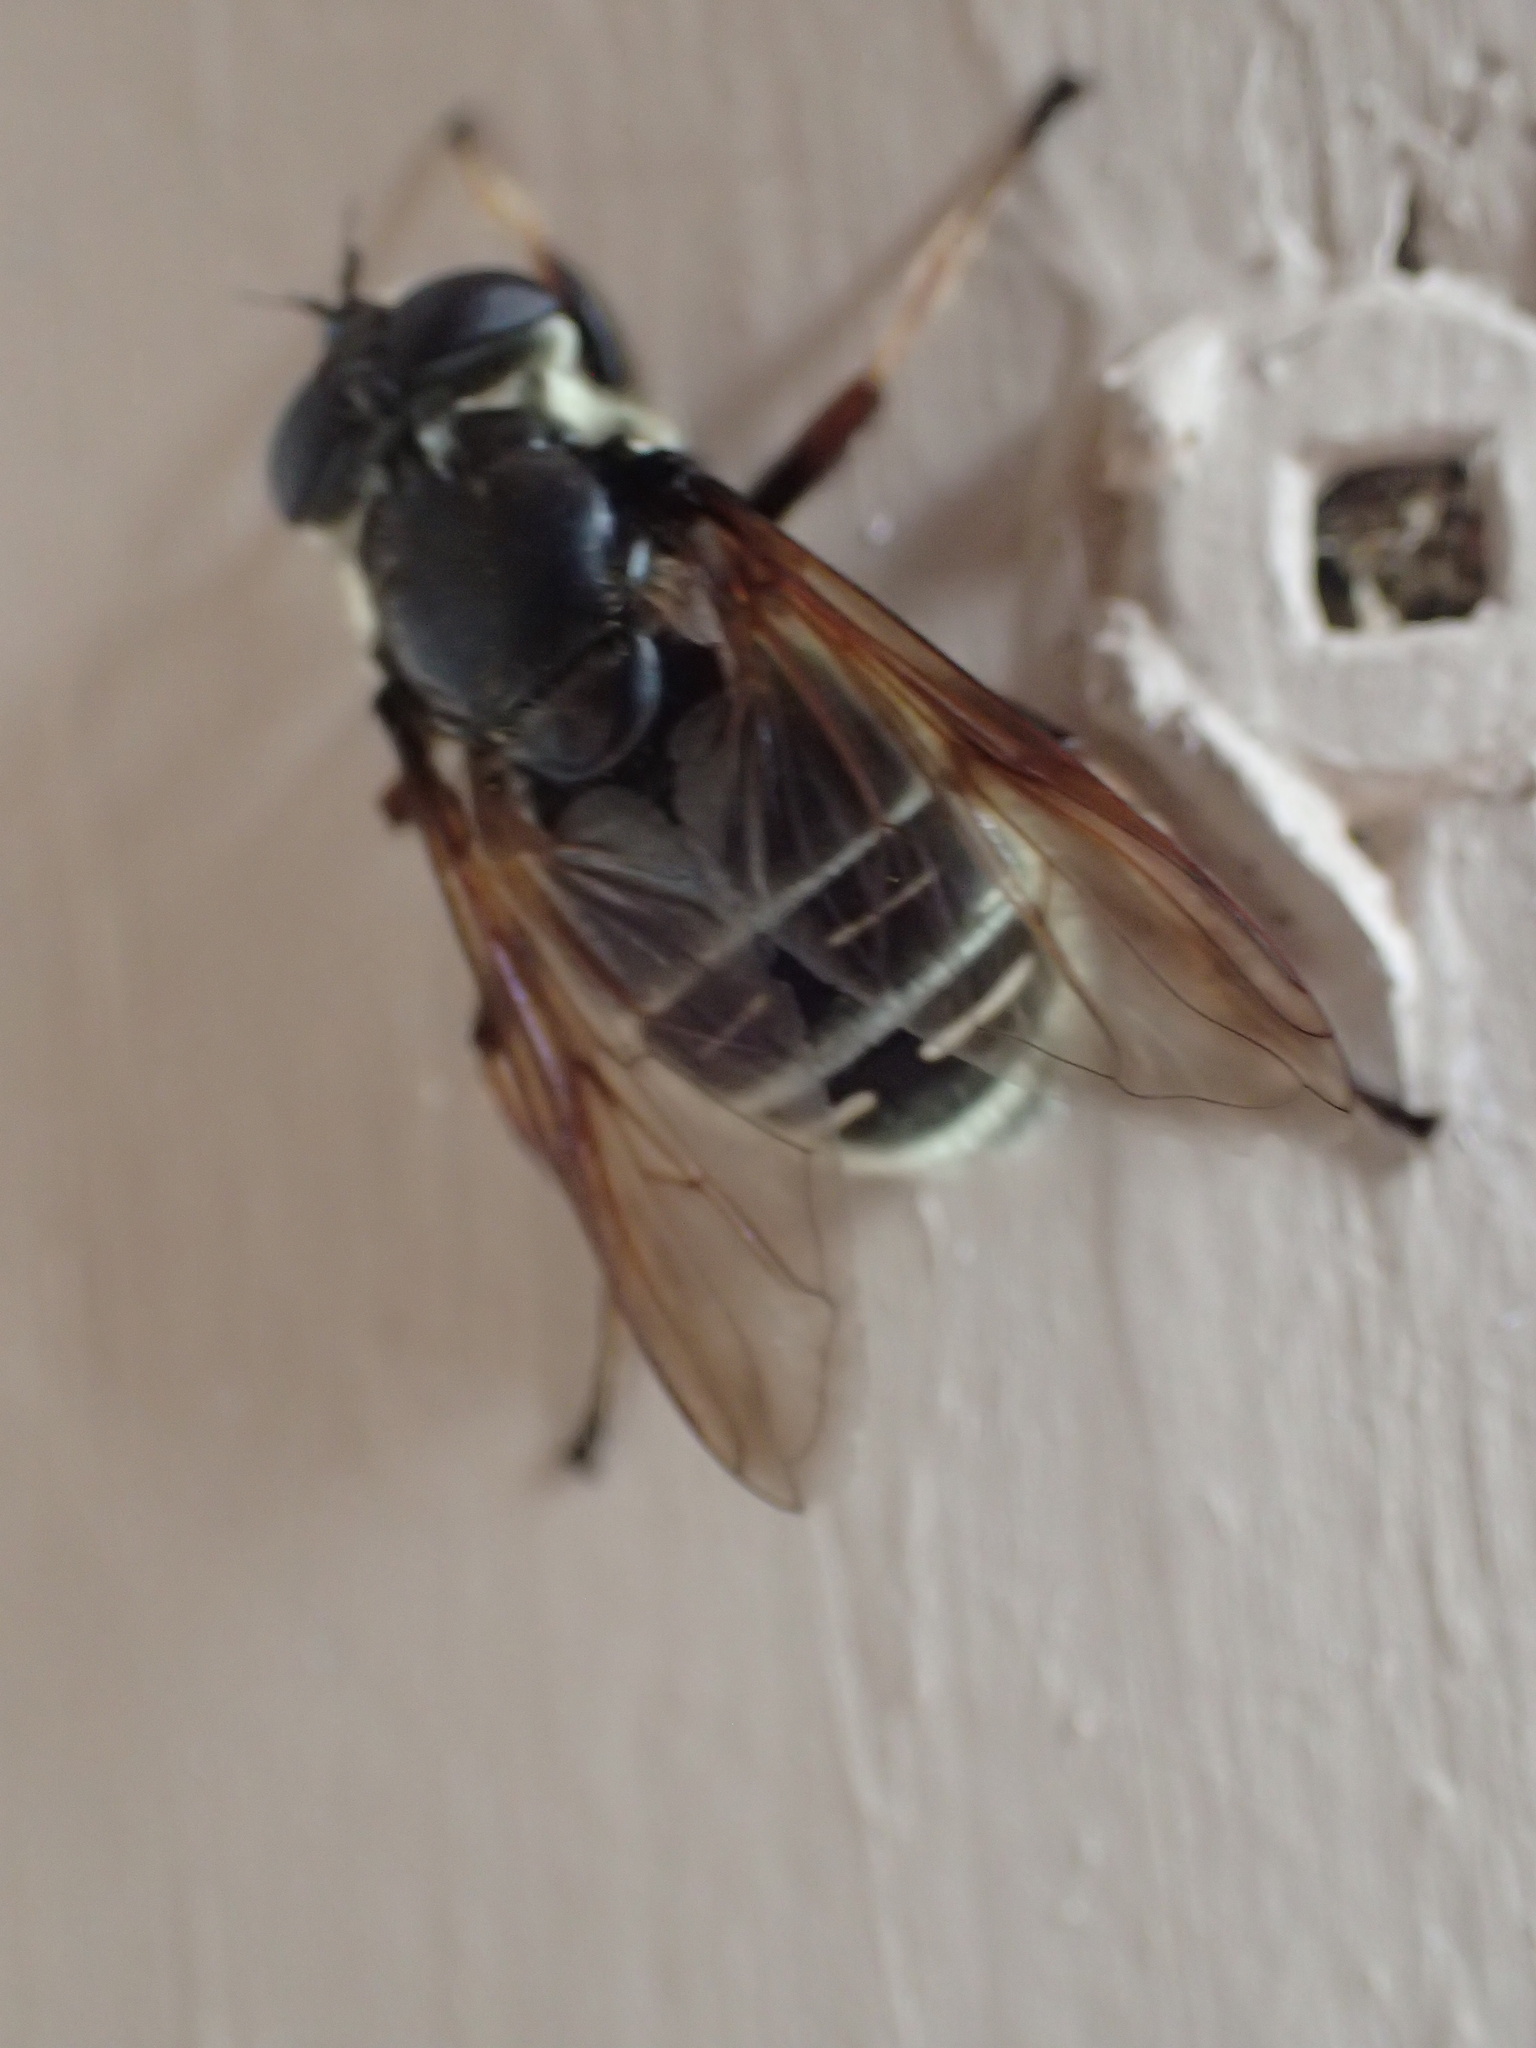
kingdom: Animalia
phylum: Arthropoda
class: Insecta
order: Diptera
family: Syrphidae
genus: Sericomyia
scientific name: Sericomyia militaris
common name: Narrow-banded pond fly
